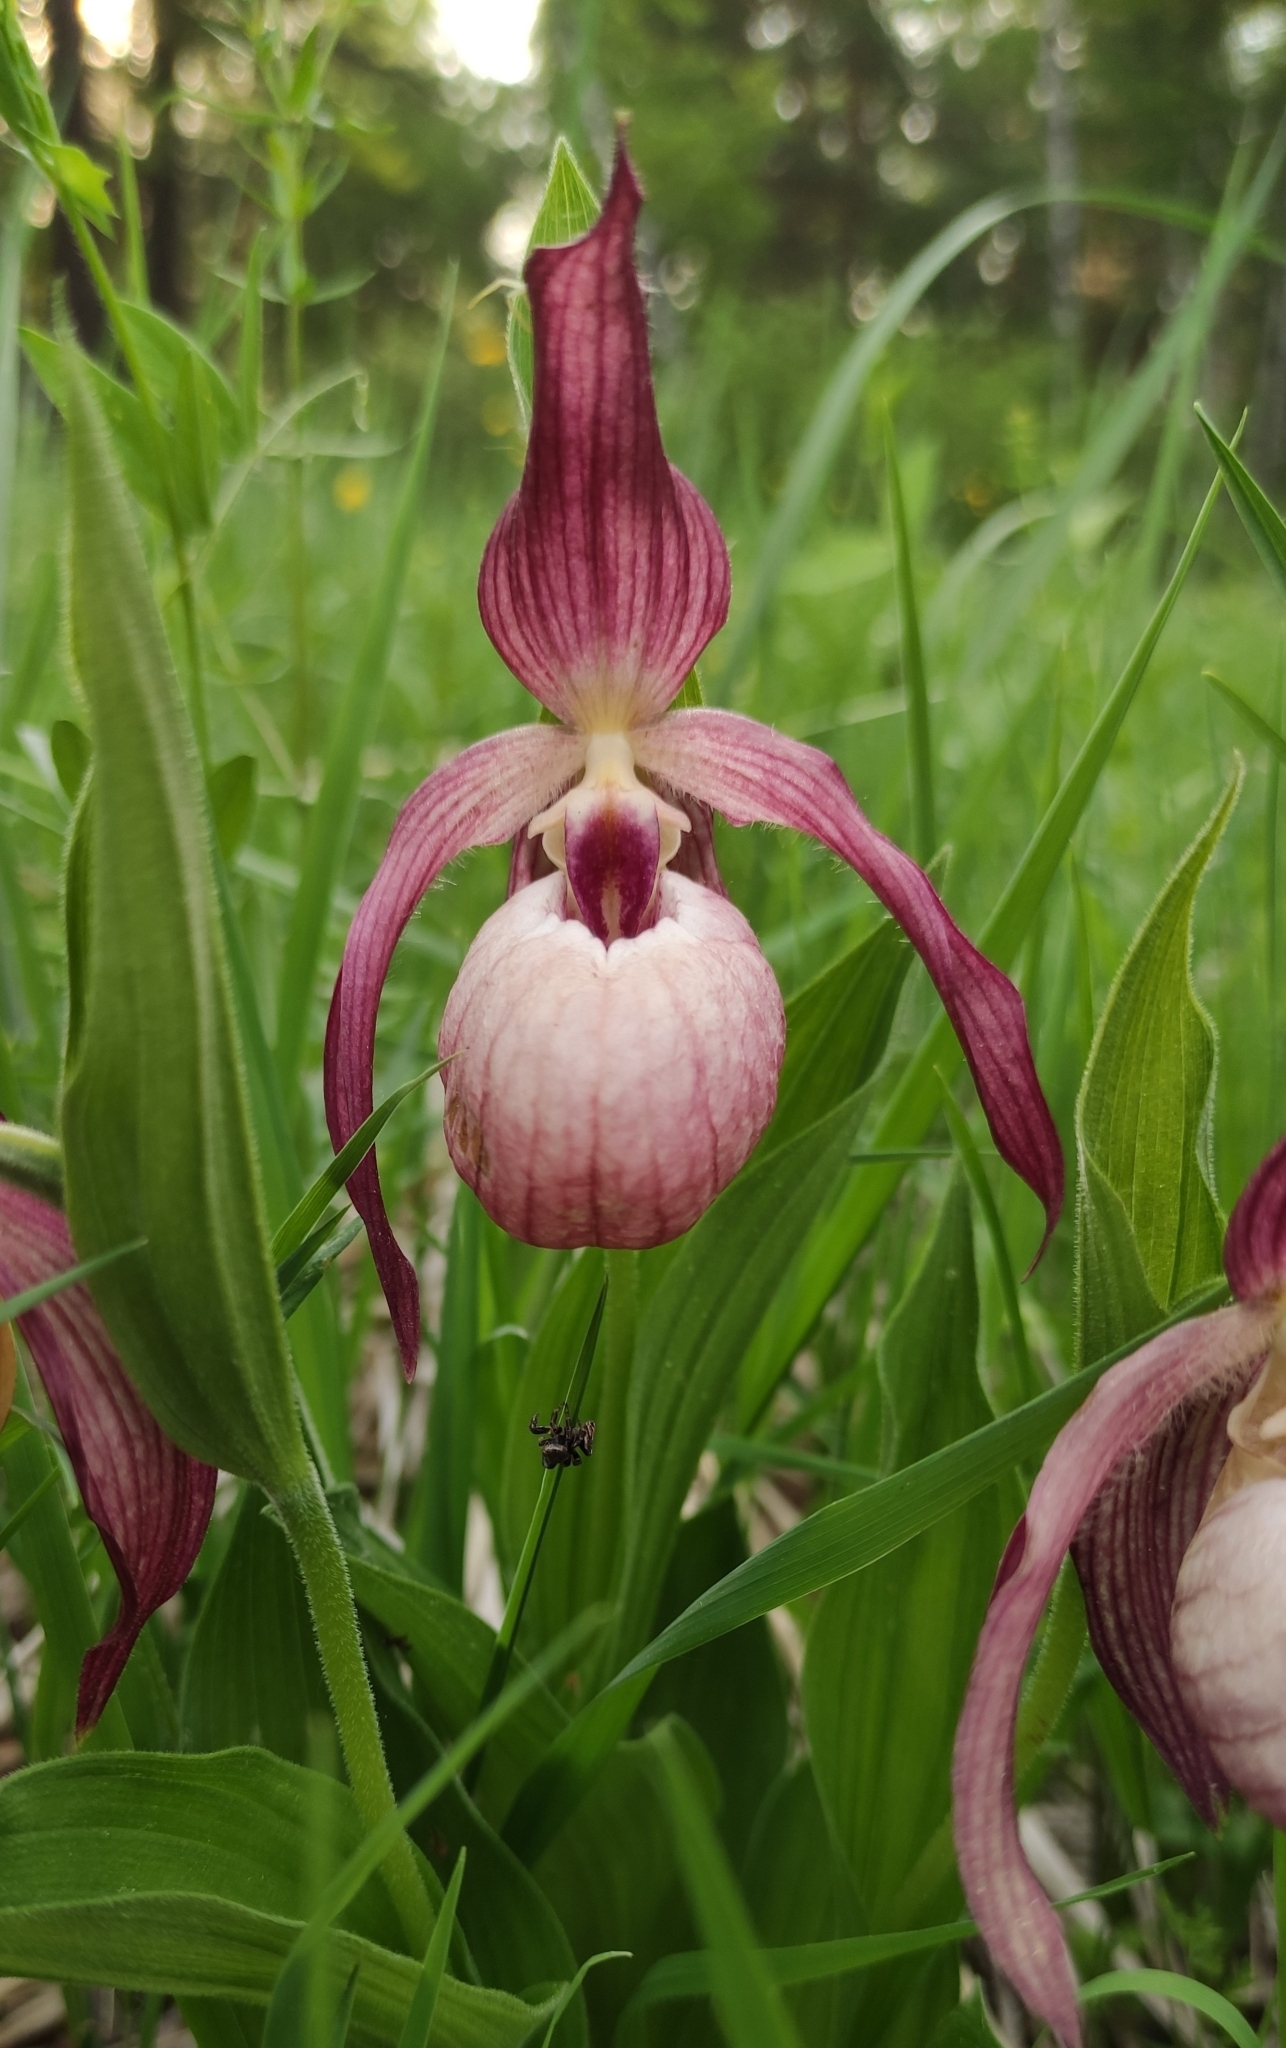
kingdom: Plantae
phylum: Tracheophyta
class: Liliopsida
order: Asparagales
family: Orchidaceae
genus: Cypripedium
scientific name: Cypripedium ventricosum
